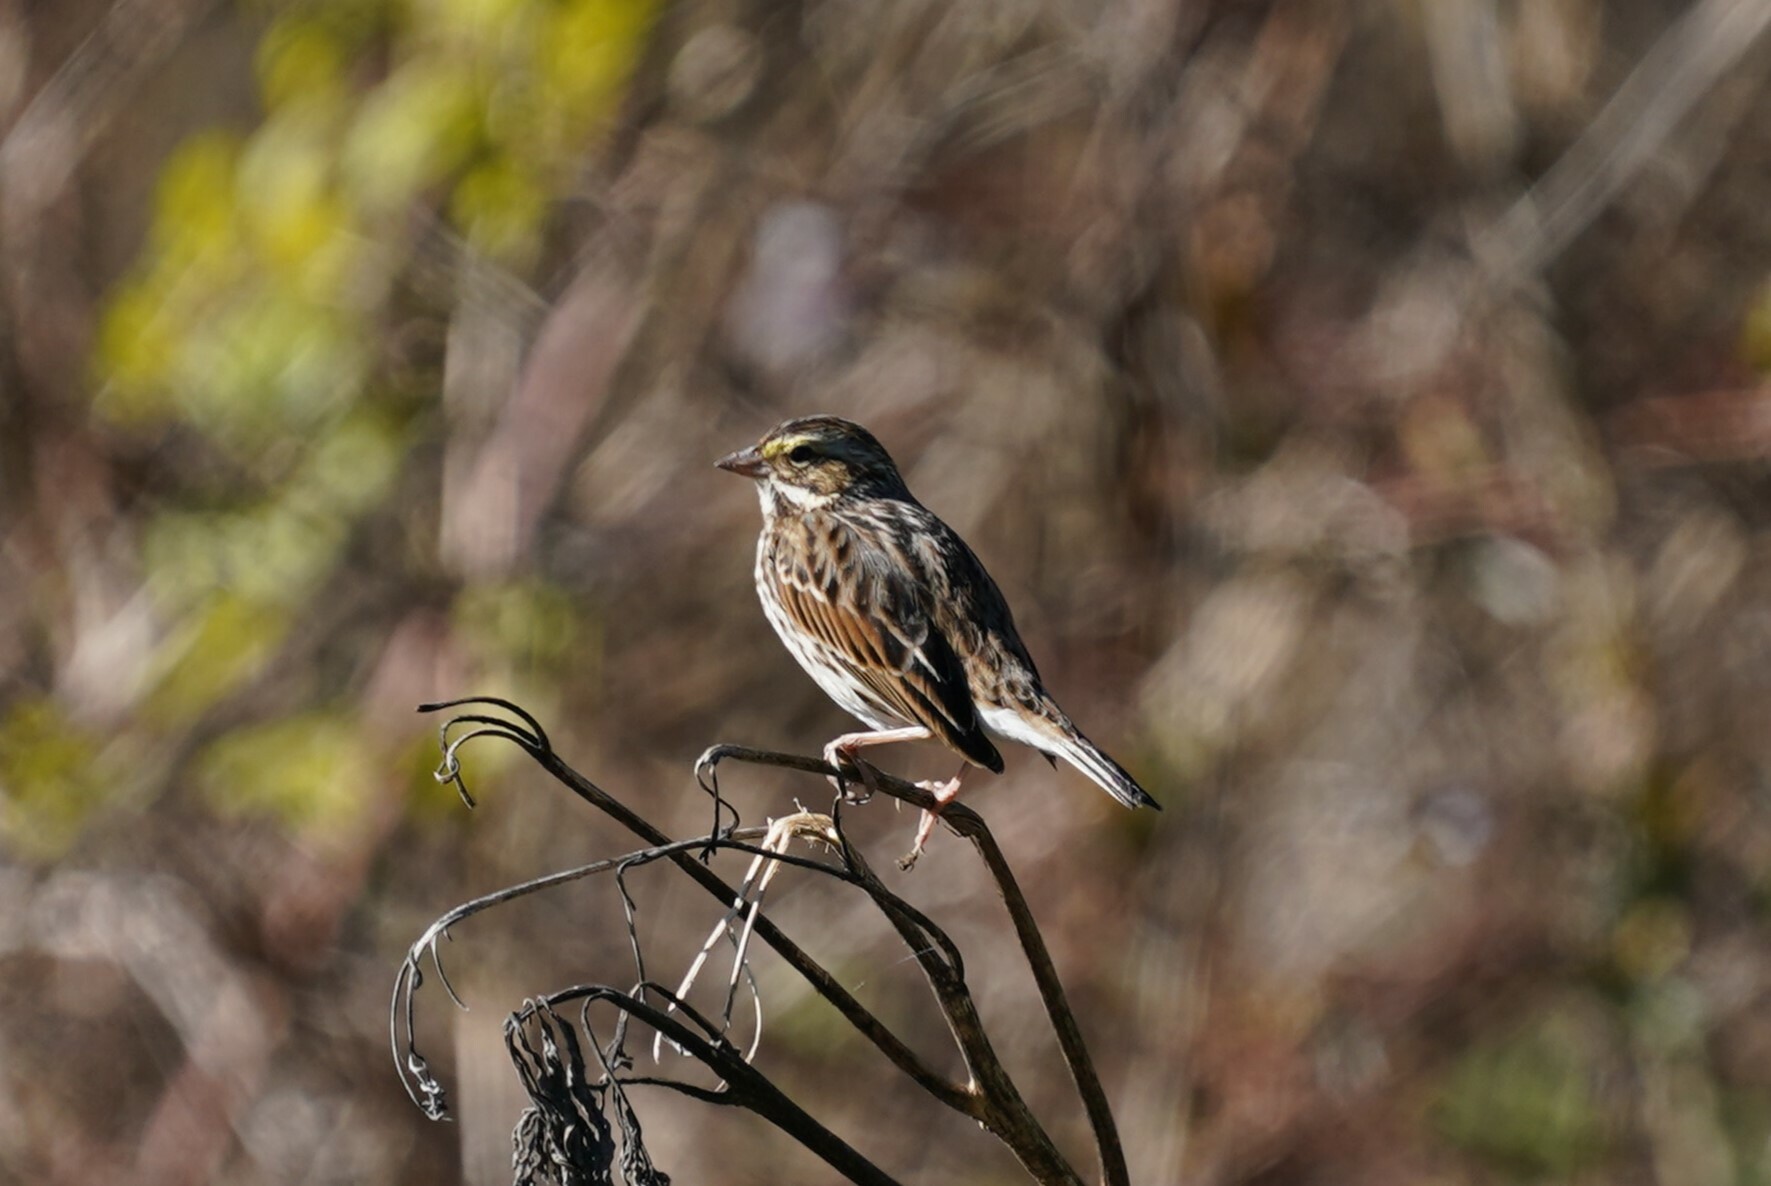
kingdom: Animalia
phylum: Chordata
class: Aves
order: Passeriformes
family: Passerellidae
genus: Passerculus
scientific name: Passerculus sandwichensis
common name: Savannah sparrow
